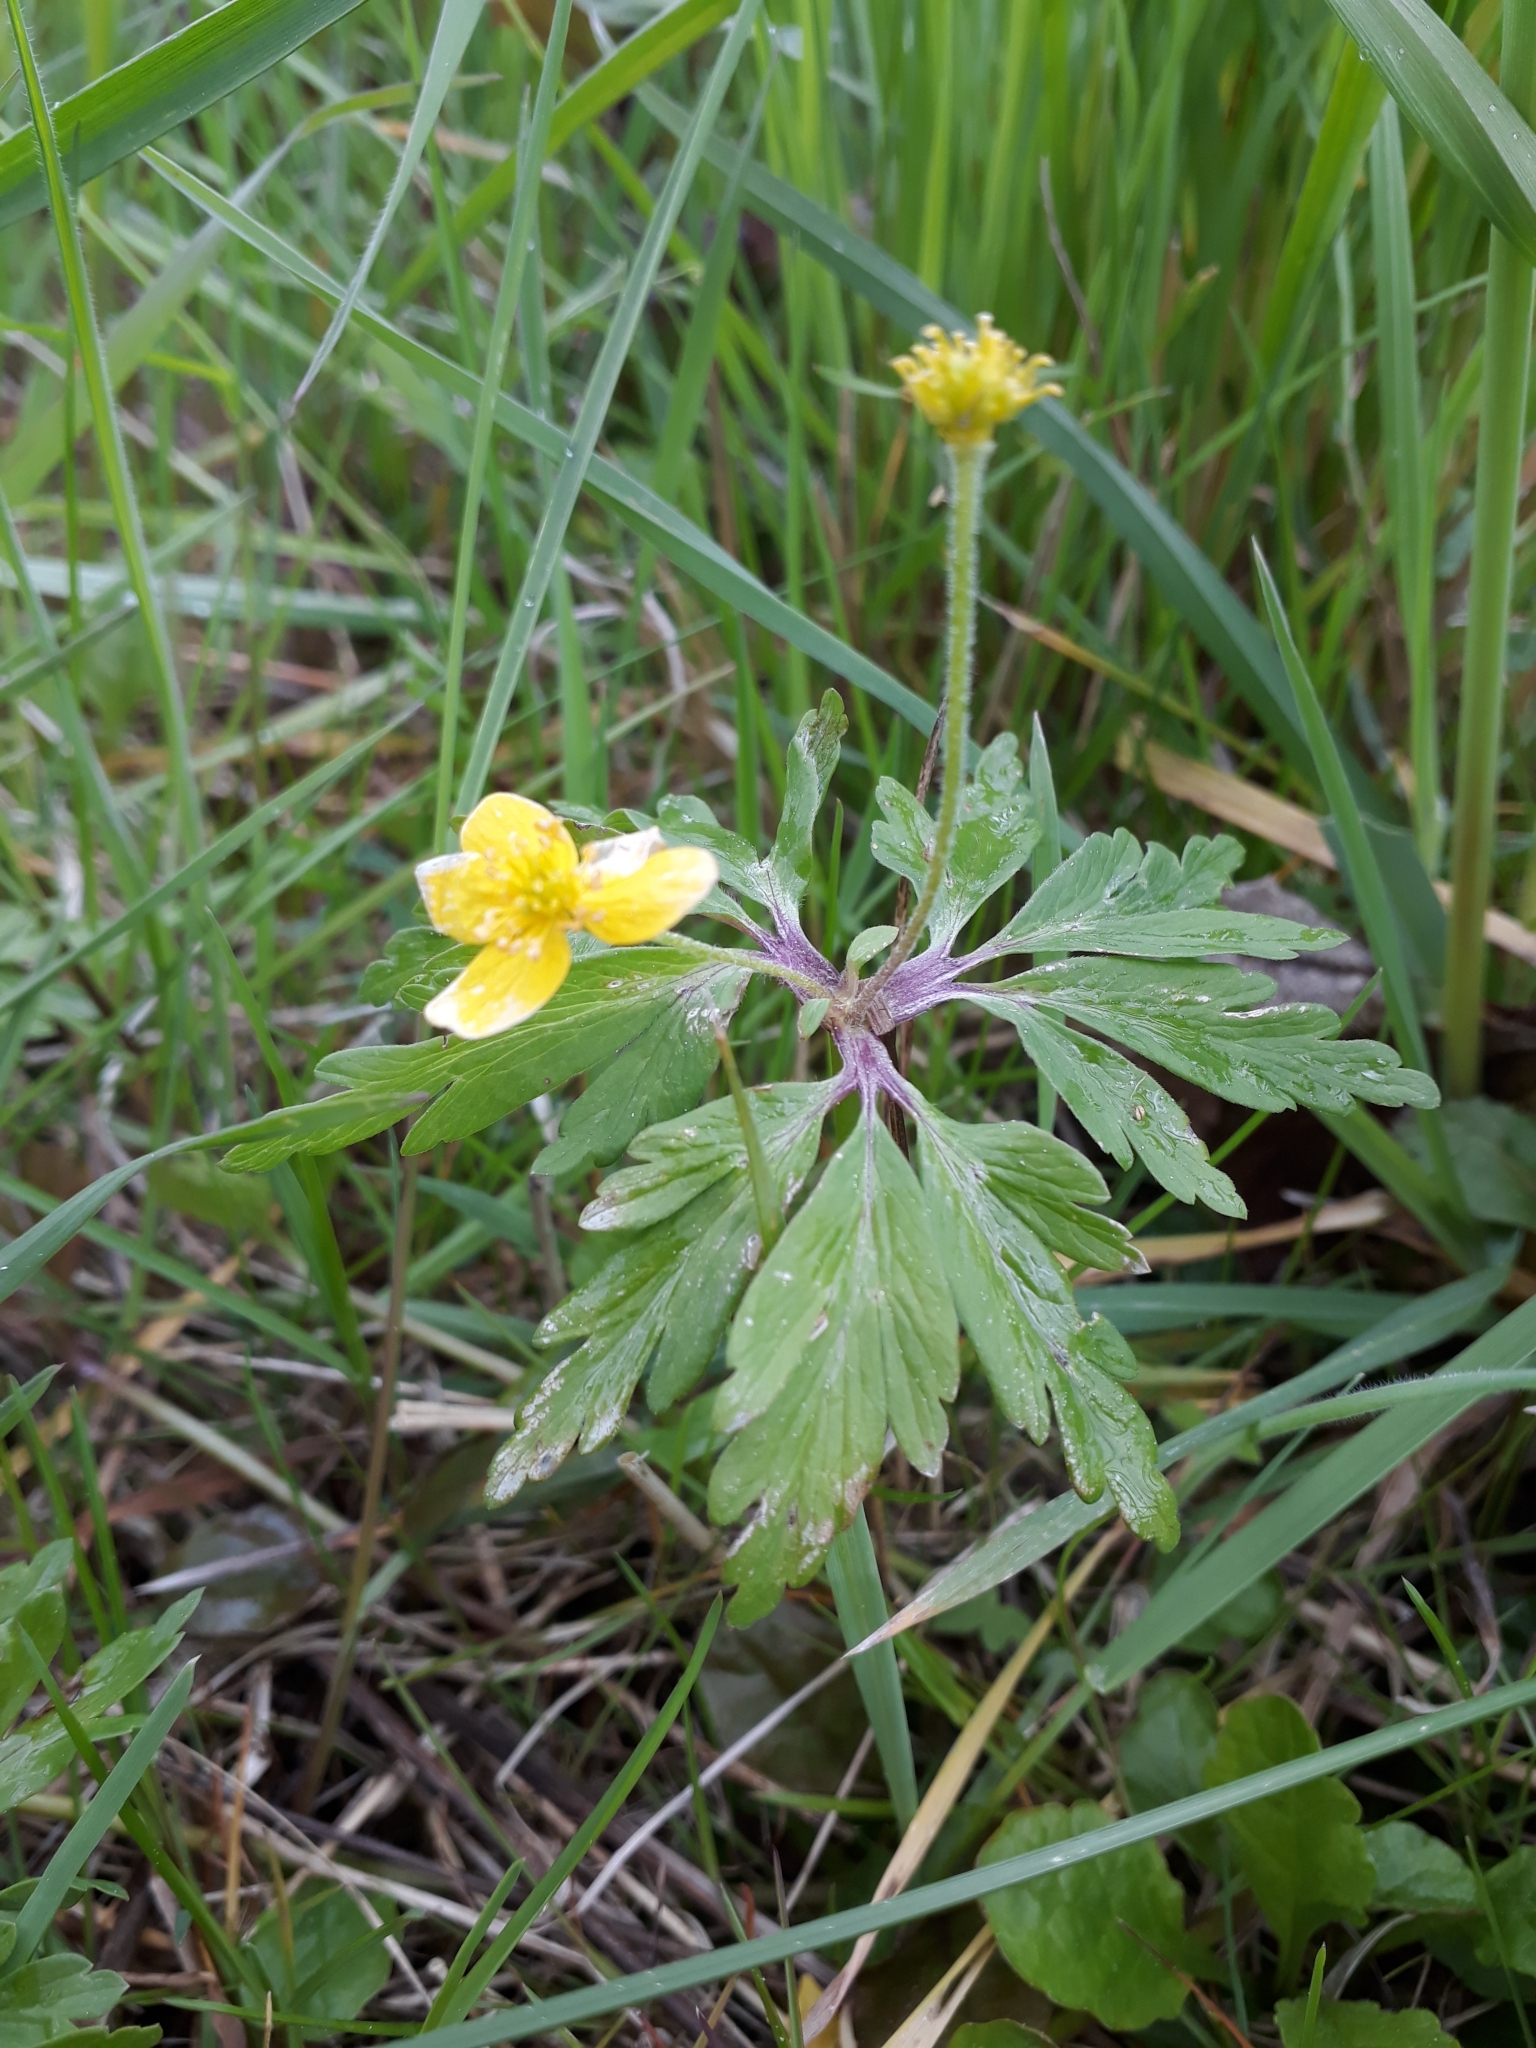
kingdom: Plantae
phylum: Tracheophyta
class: Magnoliopsida
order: Ranunculales
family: Ranunculaceae
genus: Anemone
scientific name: Anemone ranunculoides
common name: Yellow anemone
